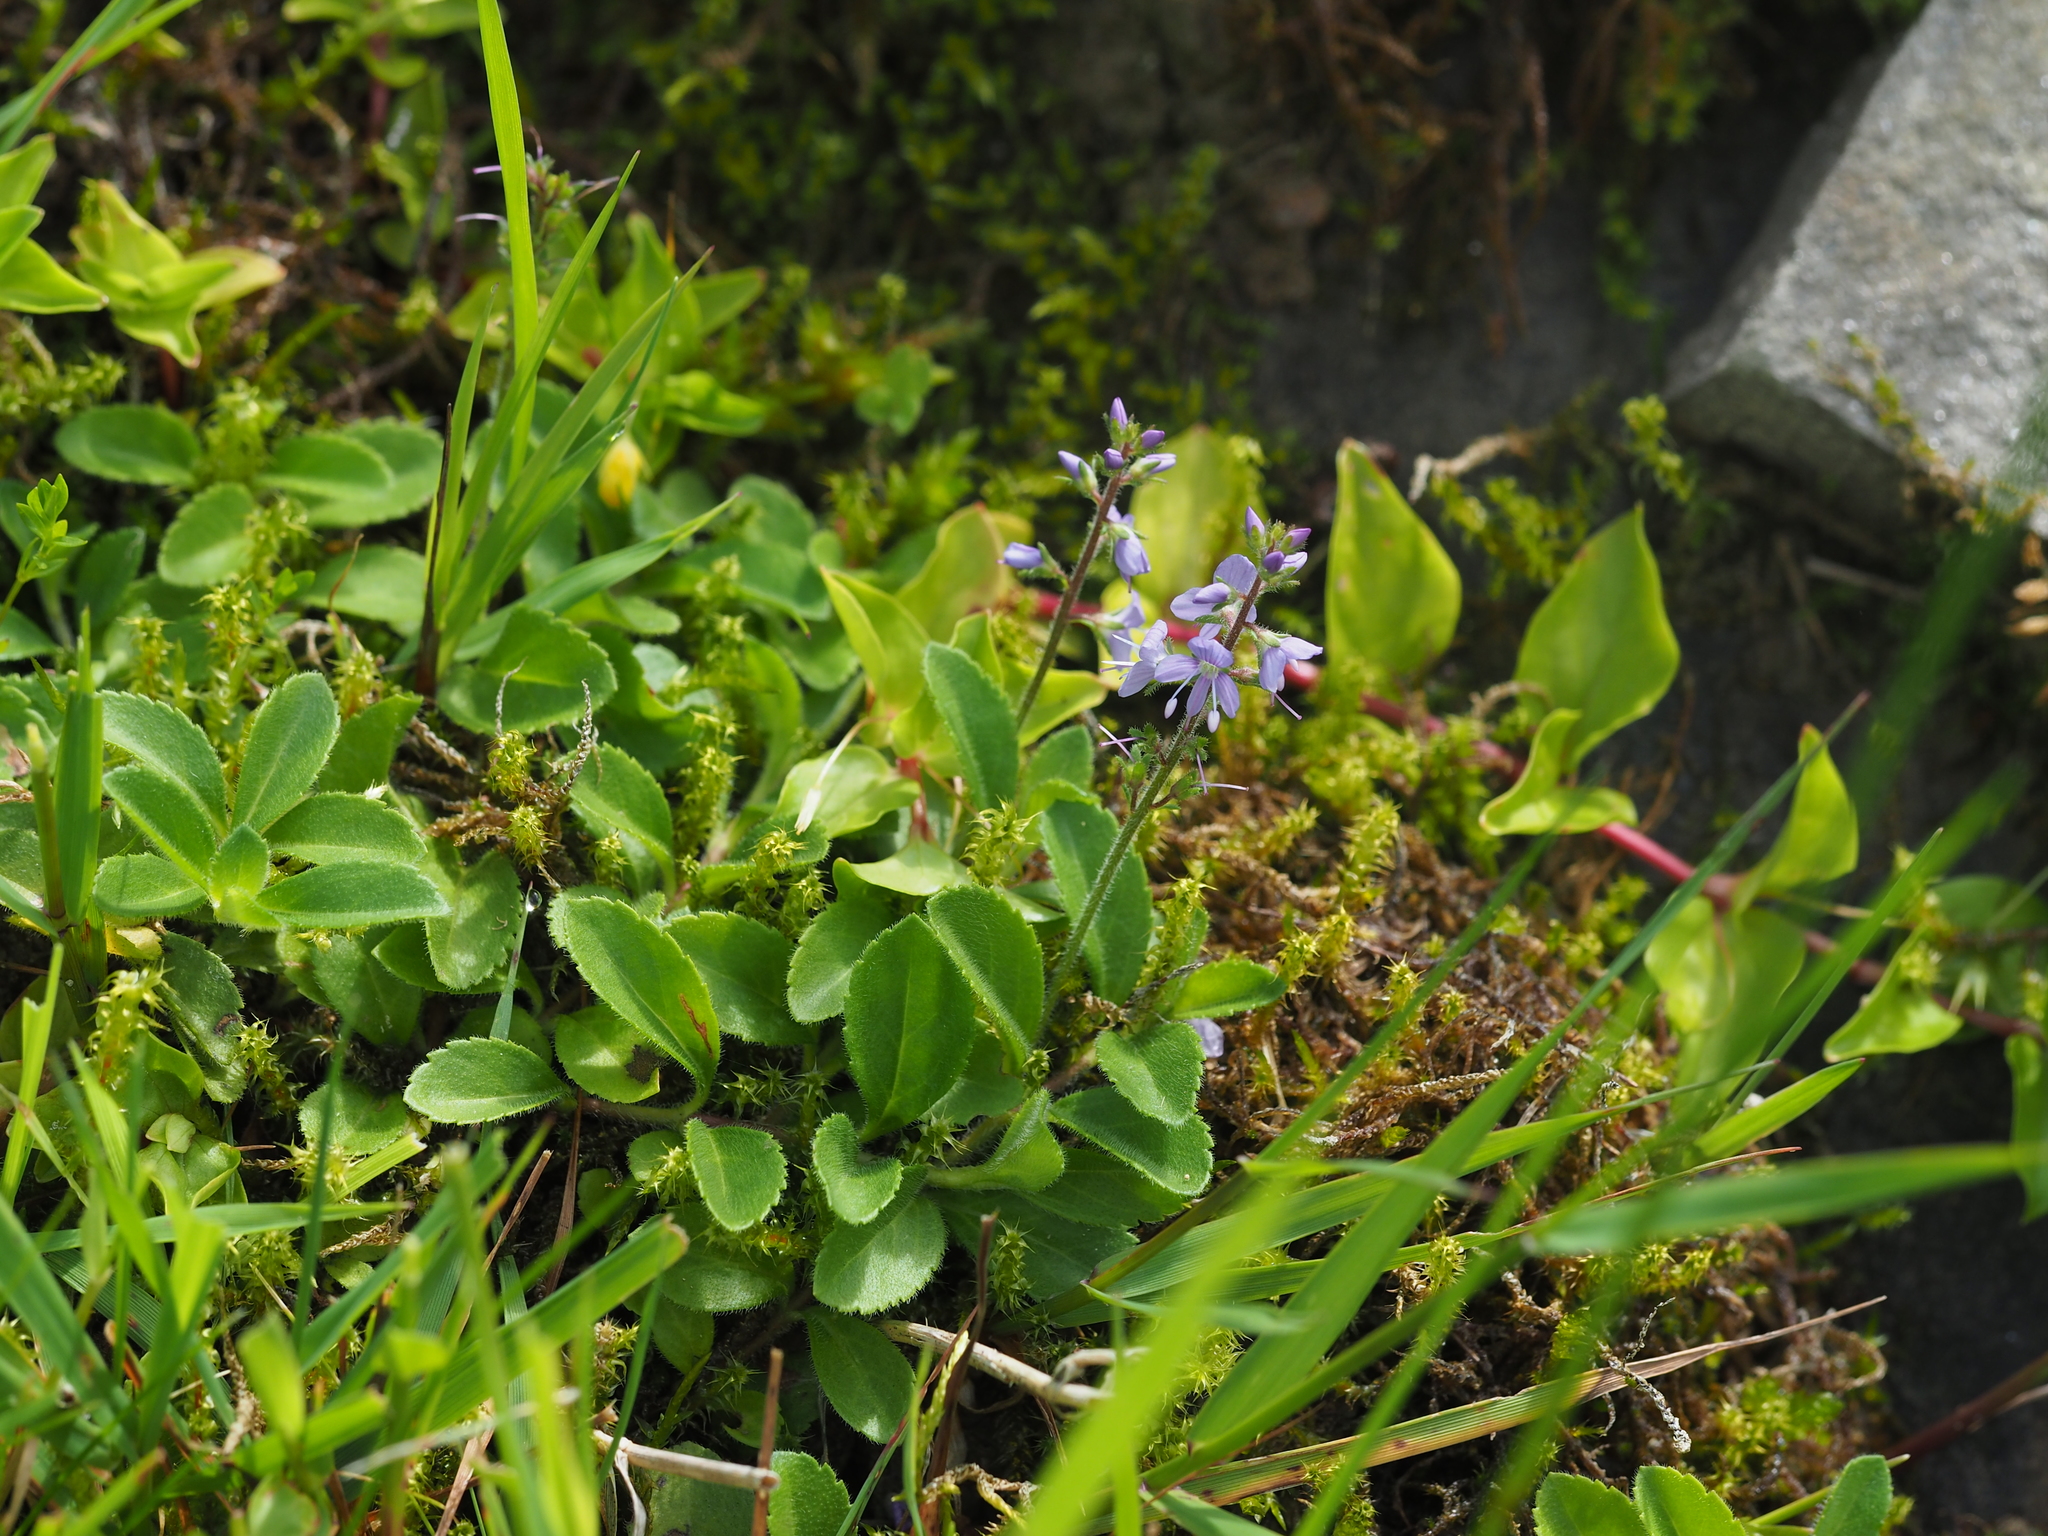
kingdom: Plantae
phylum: Tracheophyta
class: Magnoliopsida
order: Lamiales
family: Plantaginaceae
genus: Veronica
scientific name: Veronica officinalis
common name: Common speedwell
